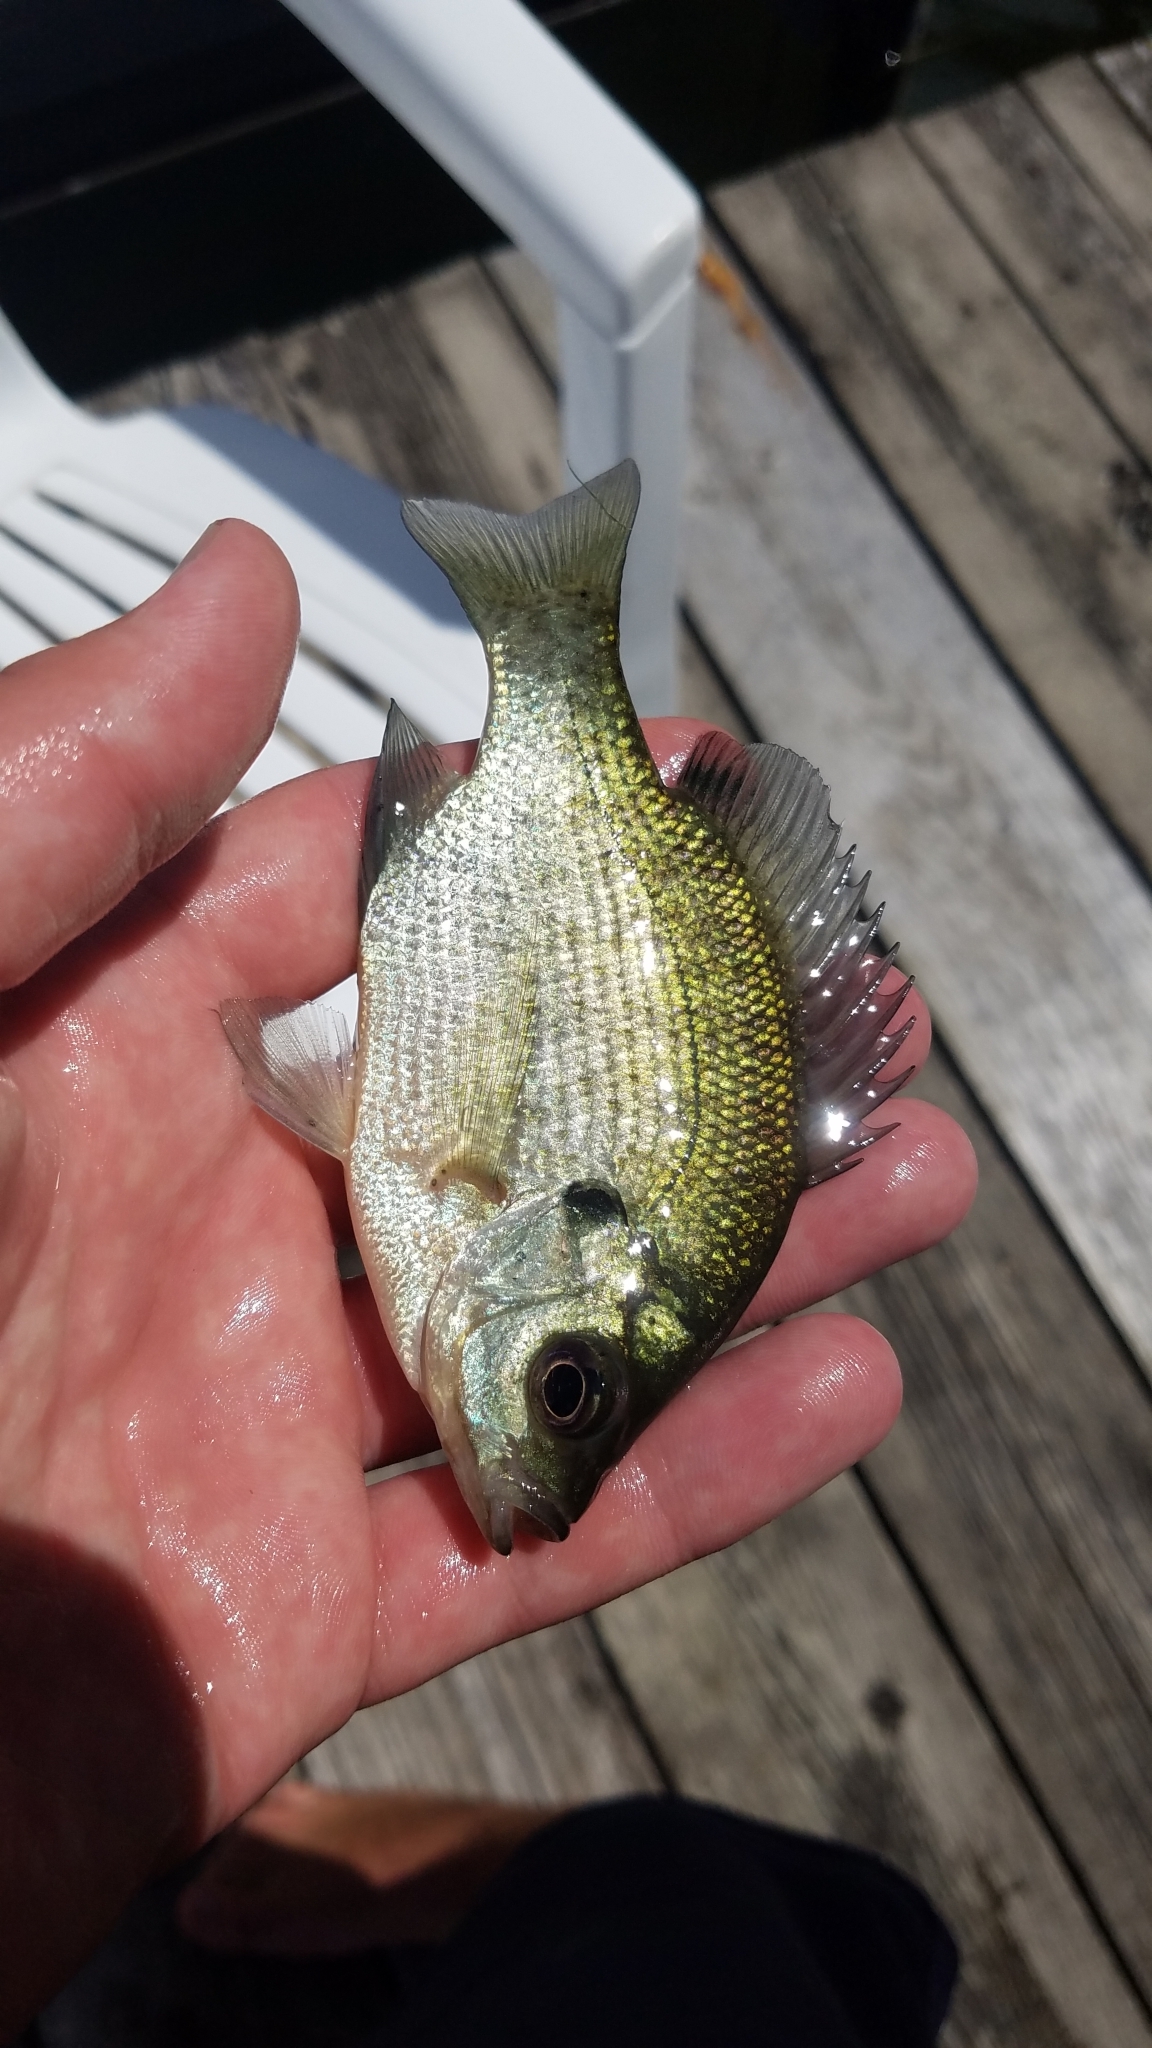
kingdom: Animalia
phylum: Chordata
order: Perciformes
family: Centrarchidae
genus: Lepomis
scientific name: Lepomis macrochirus
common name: Bluegill
